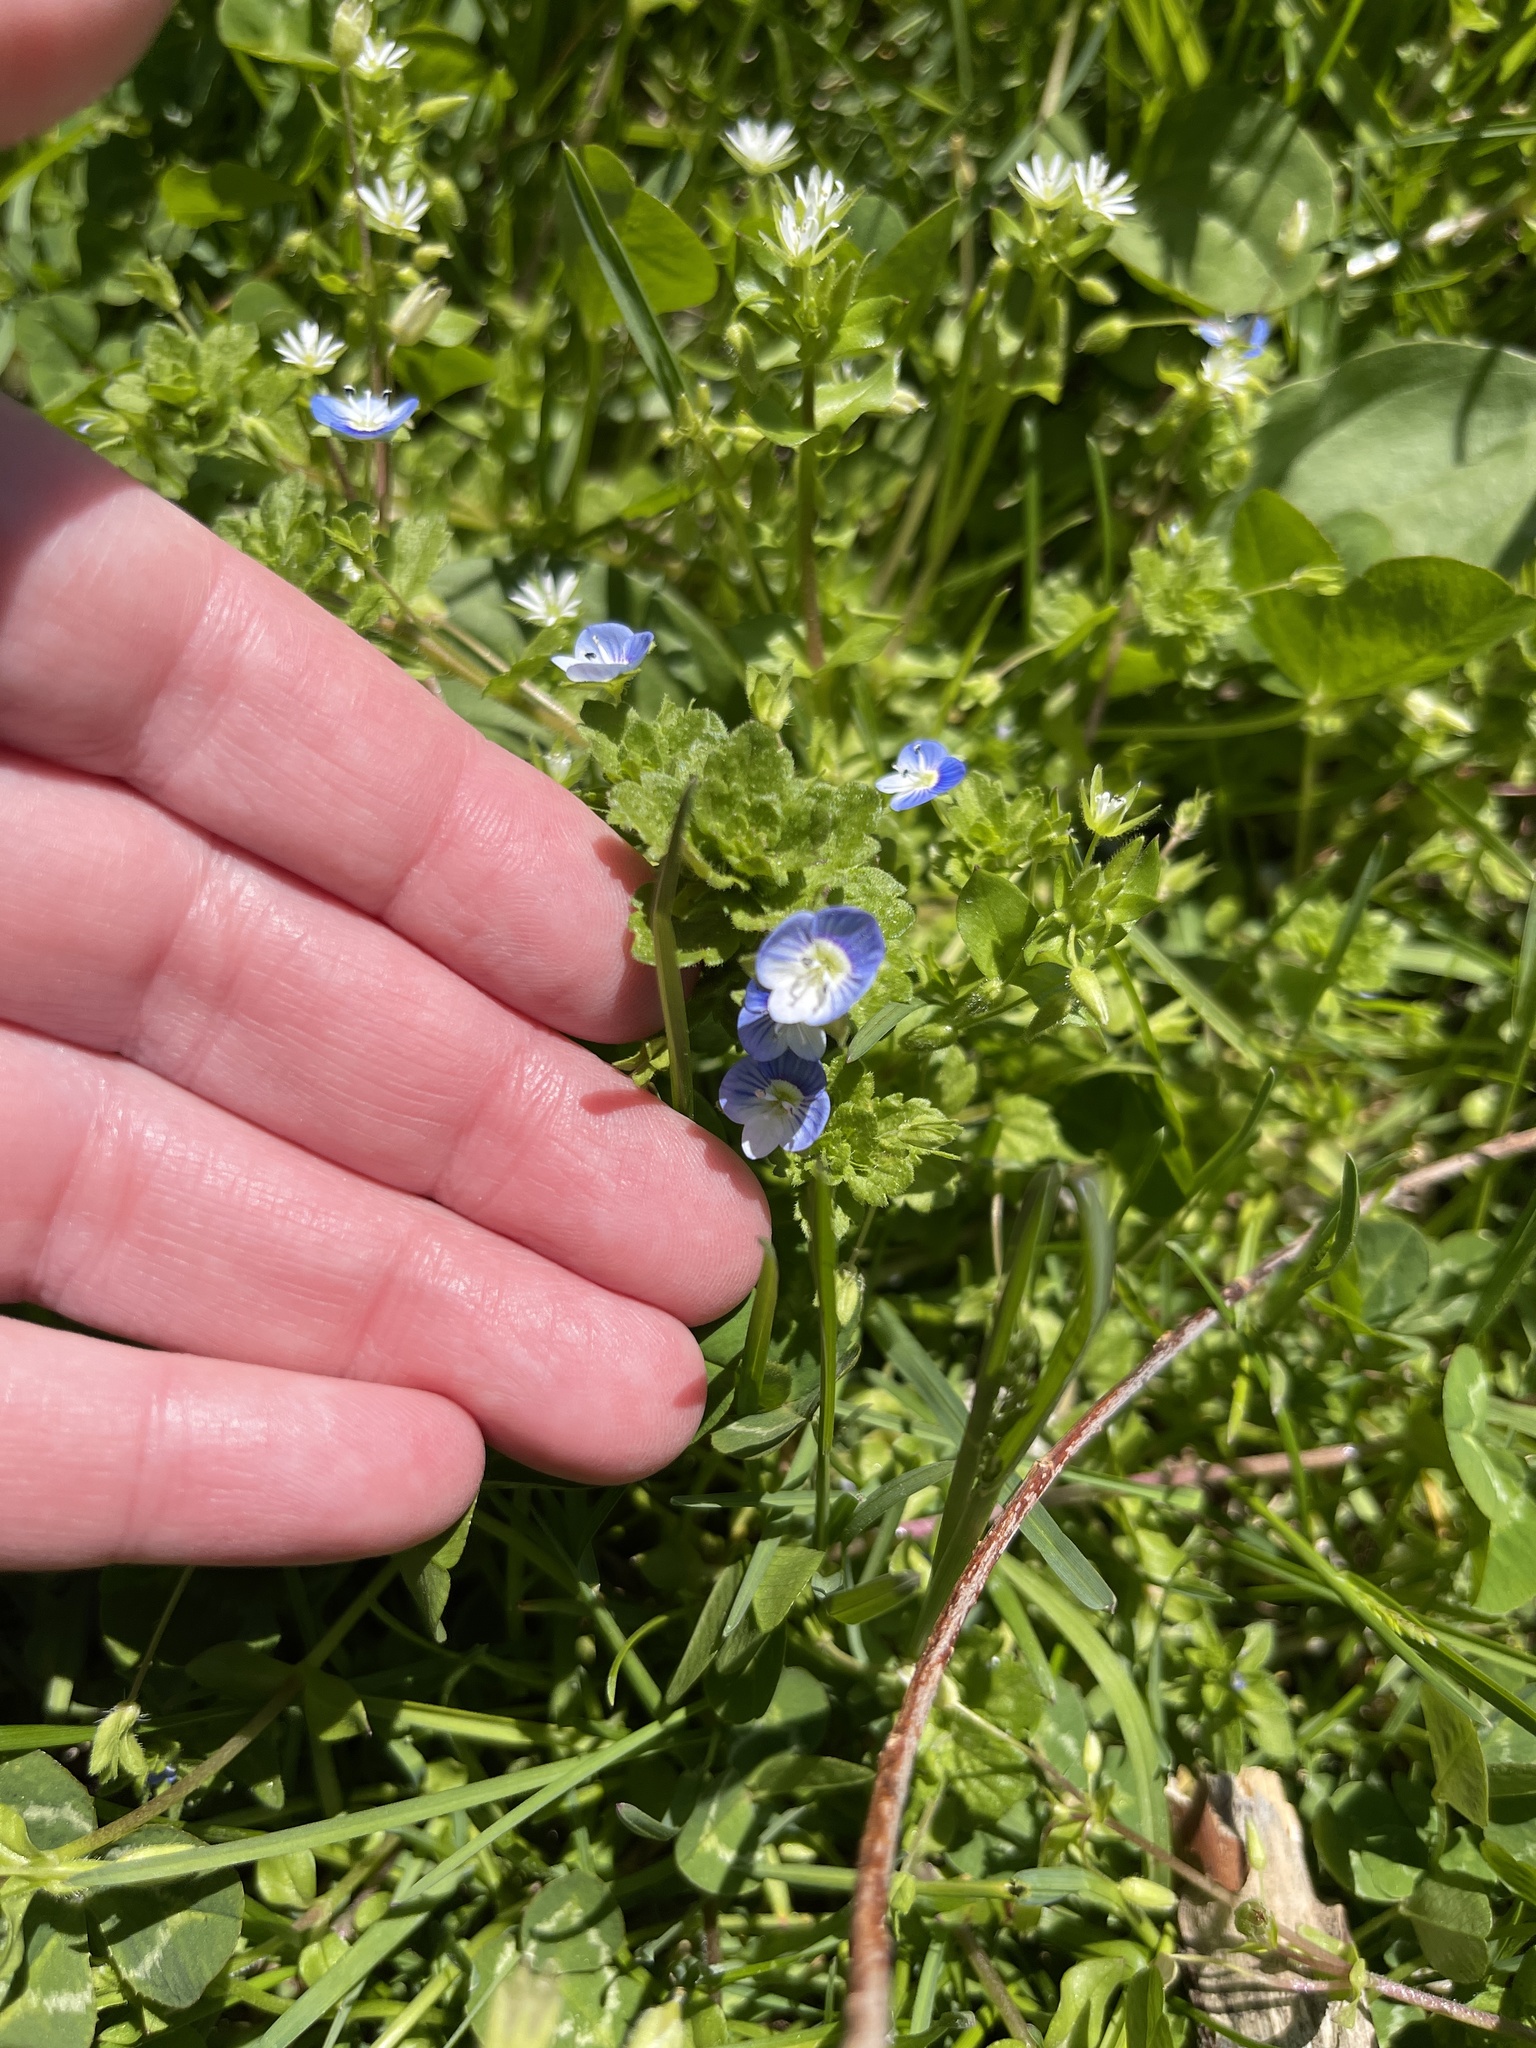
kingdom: Plantae
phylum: Tracheophyta
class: Magnoliopsida
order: Lamiales
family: Plantaginaceae
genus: Veronica
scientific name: Veronica persica
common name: Common field-speedwell
